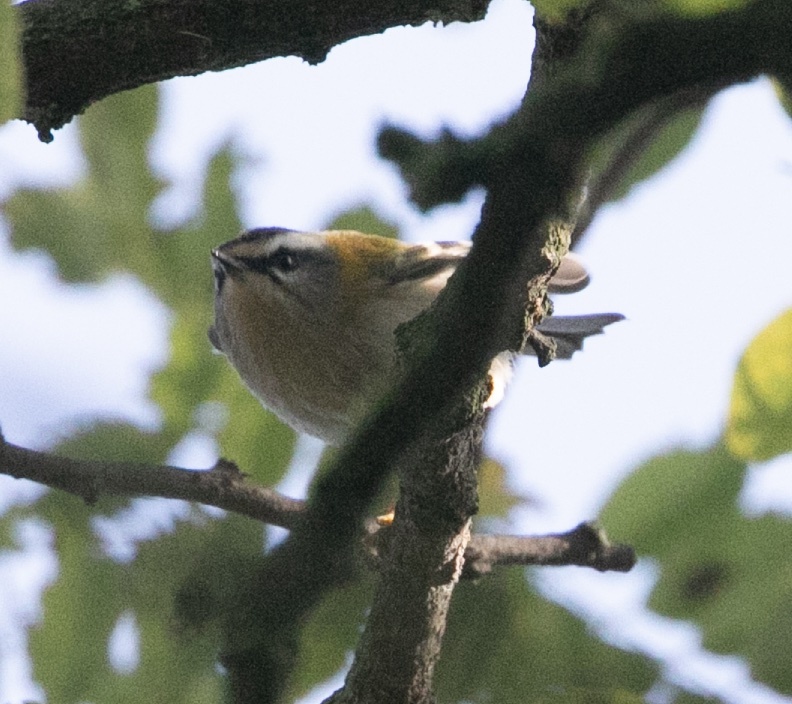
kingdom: Animalia
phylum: Chordata
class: Aves
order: Passeriformes
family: Regulidae
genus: Regulus
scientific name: Regulus ignicapilla
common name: Firecrest
